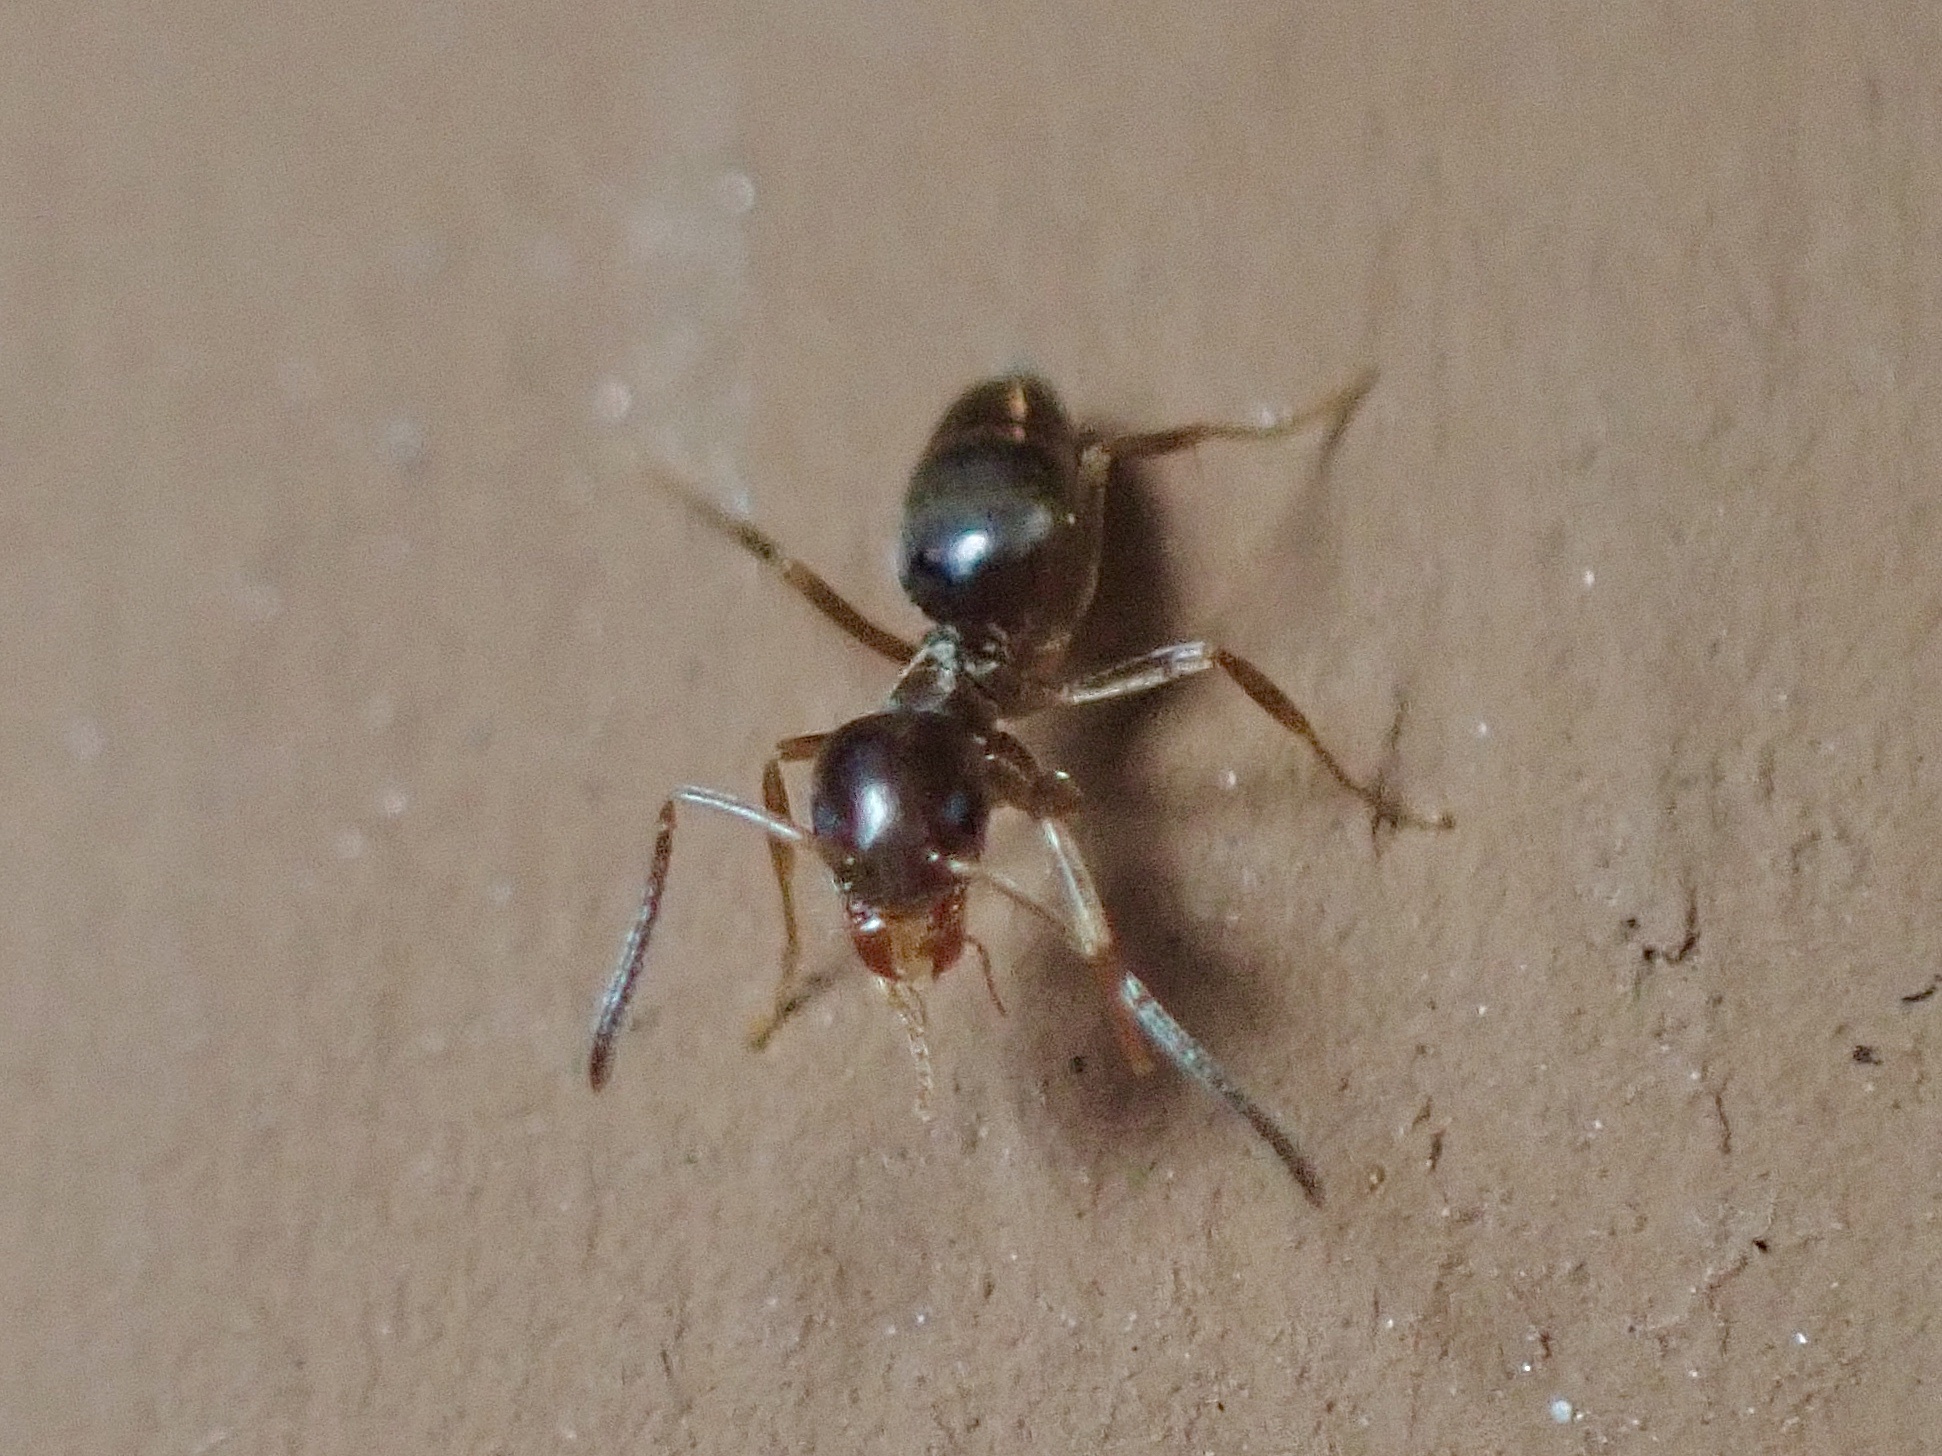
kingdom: Animalia
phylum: Arthropoda
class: Insecta
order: Hymenoptera
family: Formicidae
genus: Tapinoma
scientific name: Tapinoma sessile
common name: Odorous house ant
